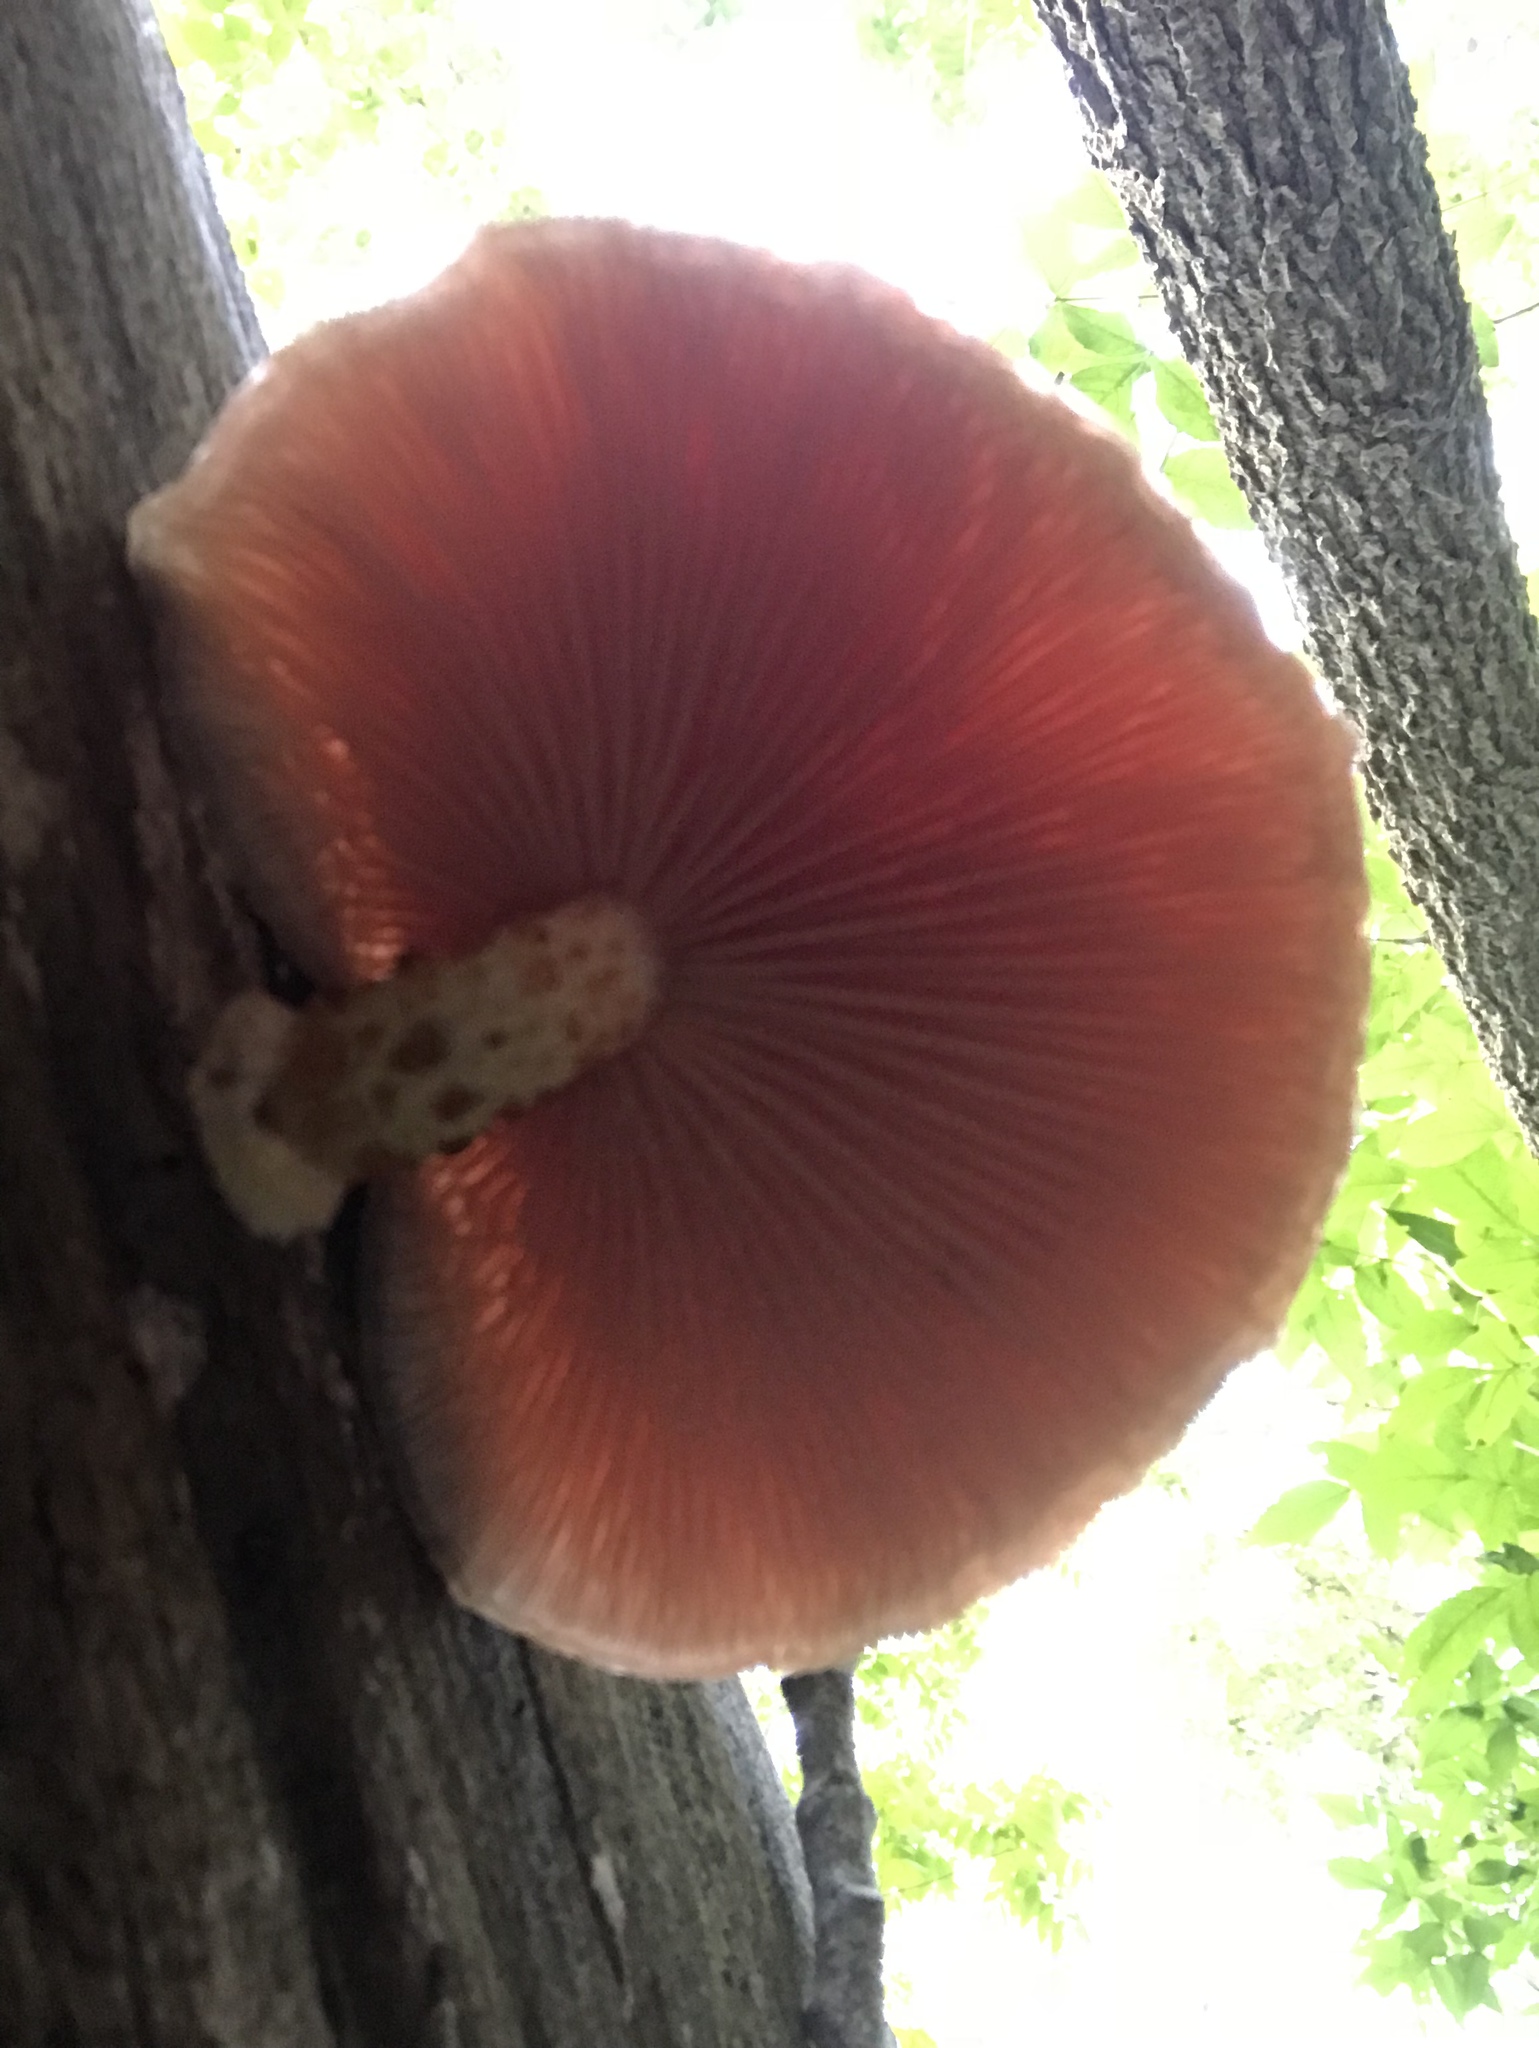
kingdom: Fungi
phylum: Basidiomycota
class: Agaricomycetes
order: Agaricales
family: Physalacriaceae
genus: Rhodotus
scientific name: Rhodotus palmatus
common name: Wrinkled peach
